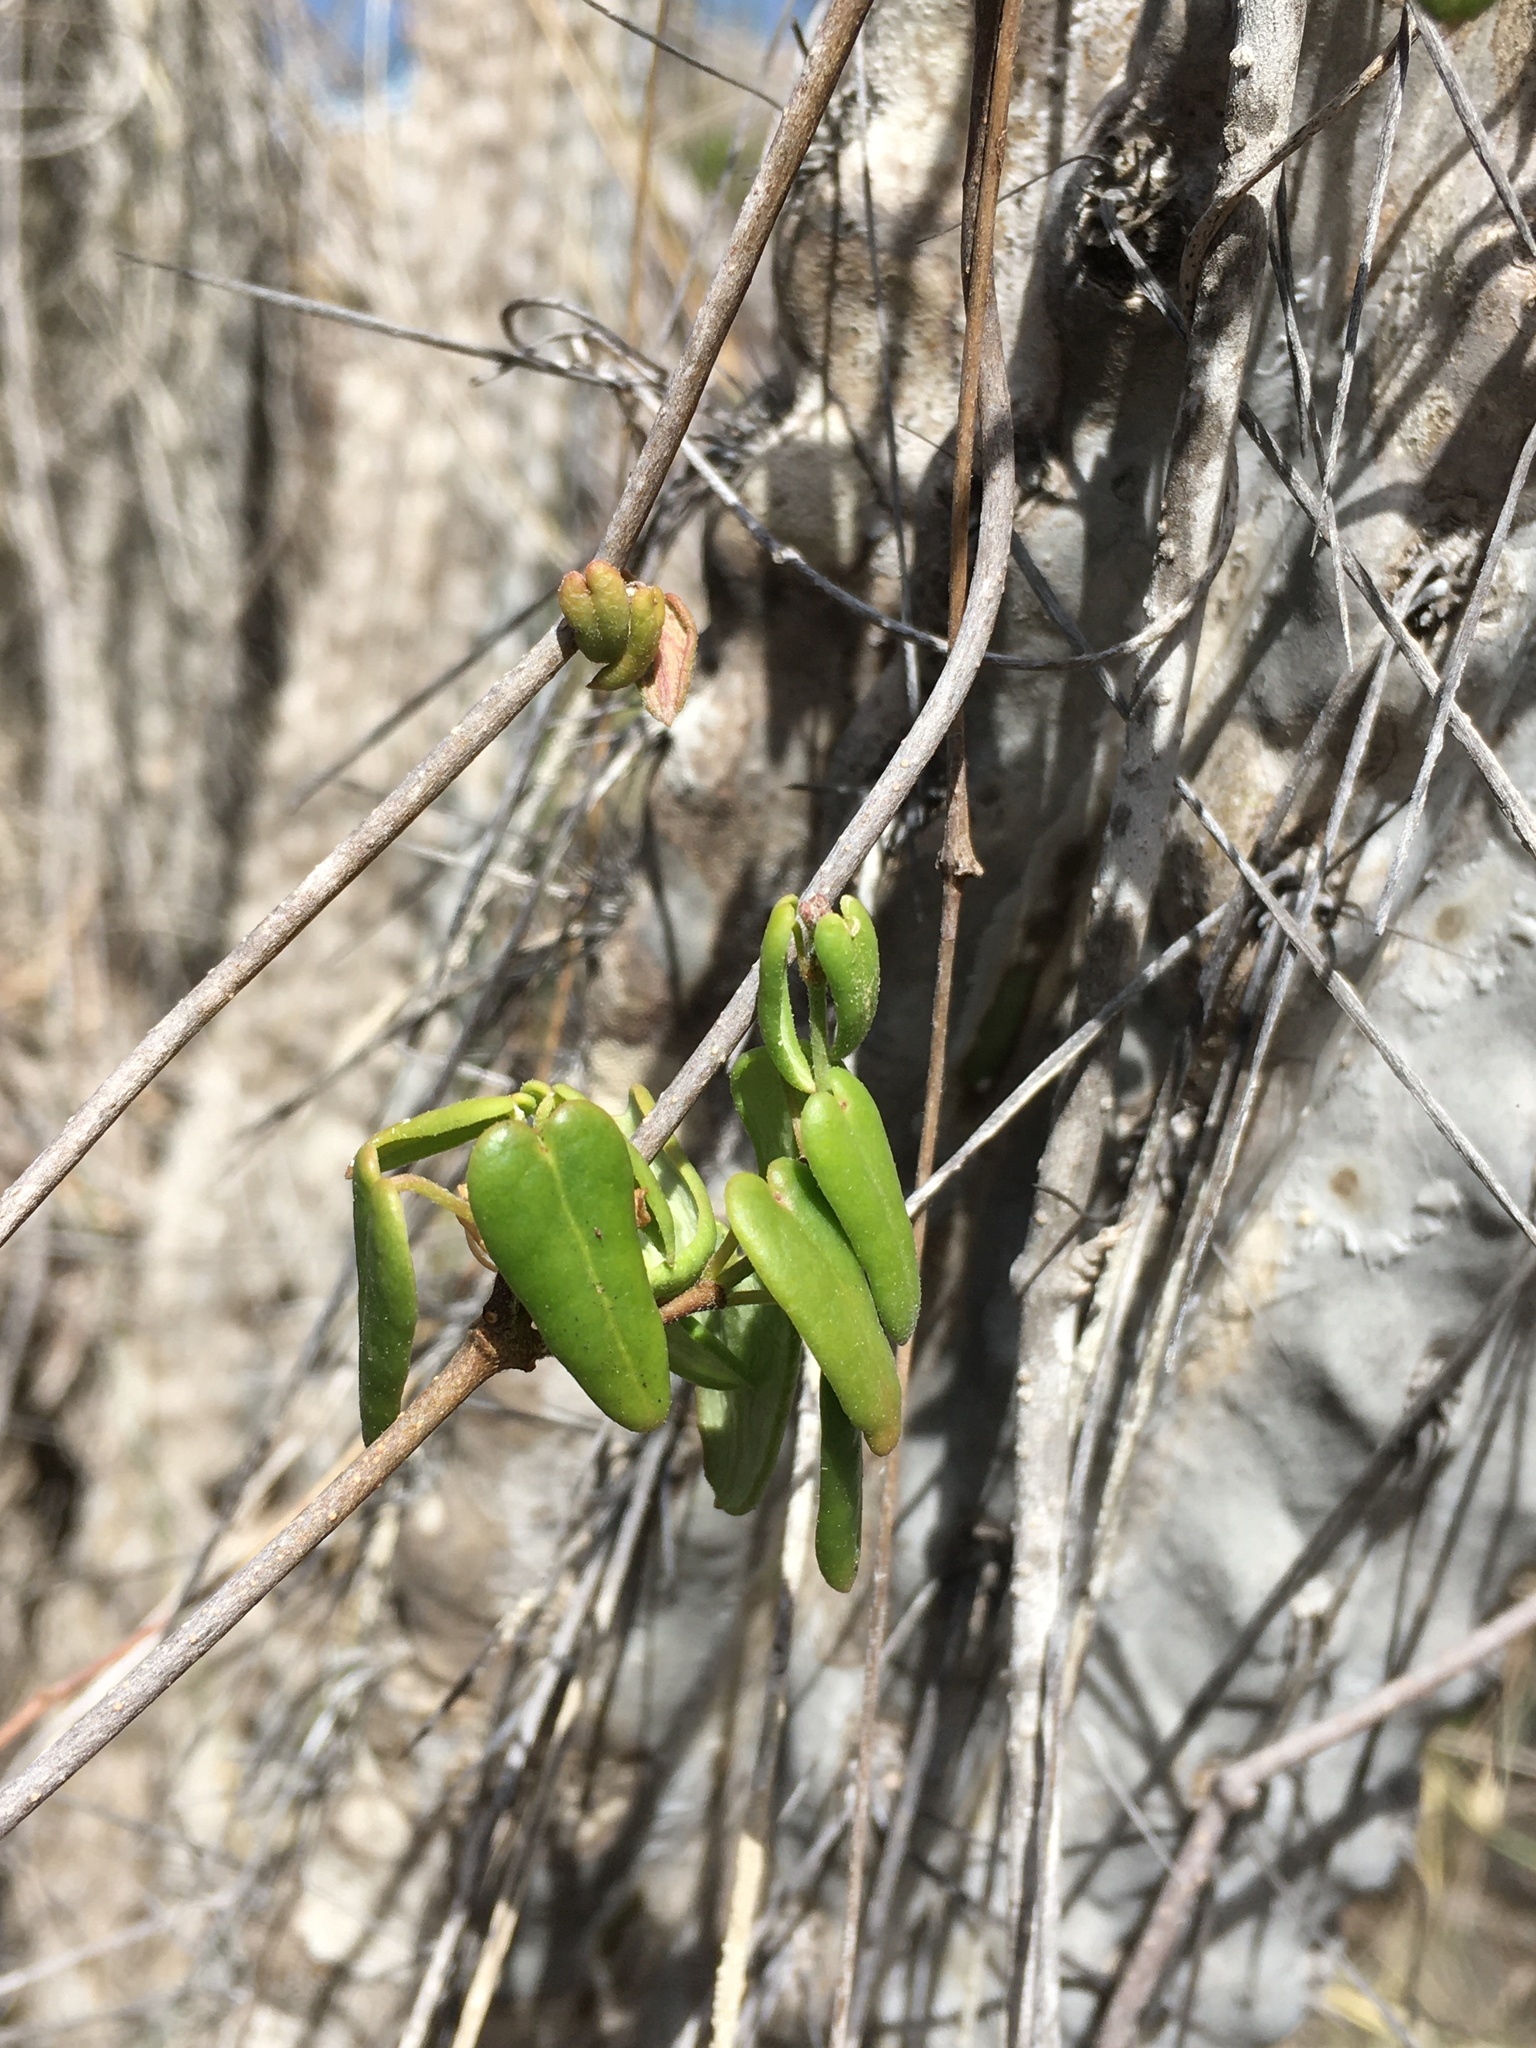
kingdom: Plantae
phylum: Tracheophyta
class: Magnoliopsida
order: Gentianales
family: Apocynaceae
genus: Diplolepis
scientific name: Diplolepis boerhaviifolia
